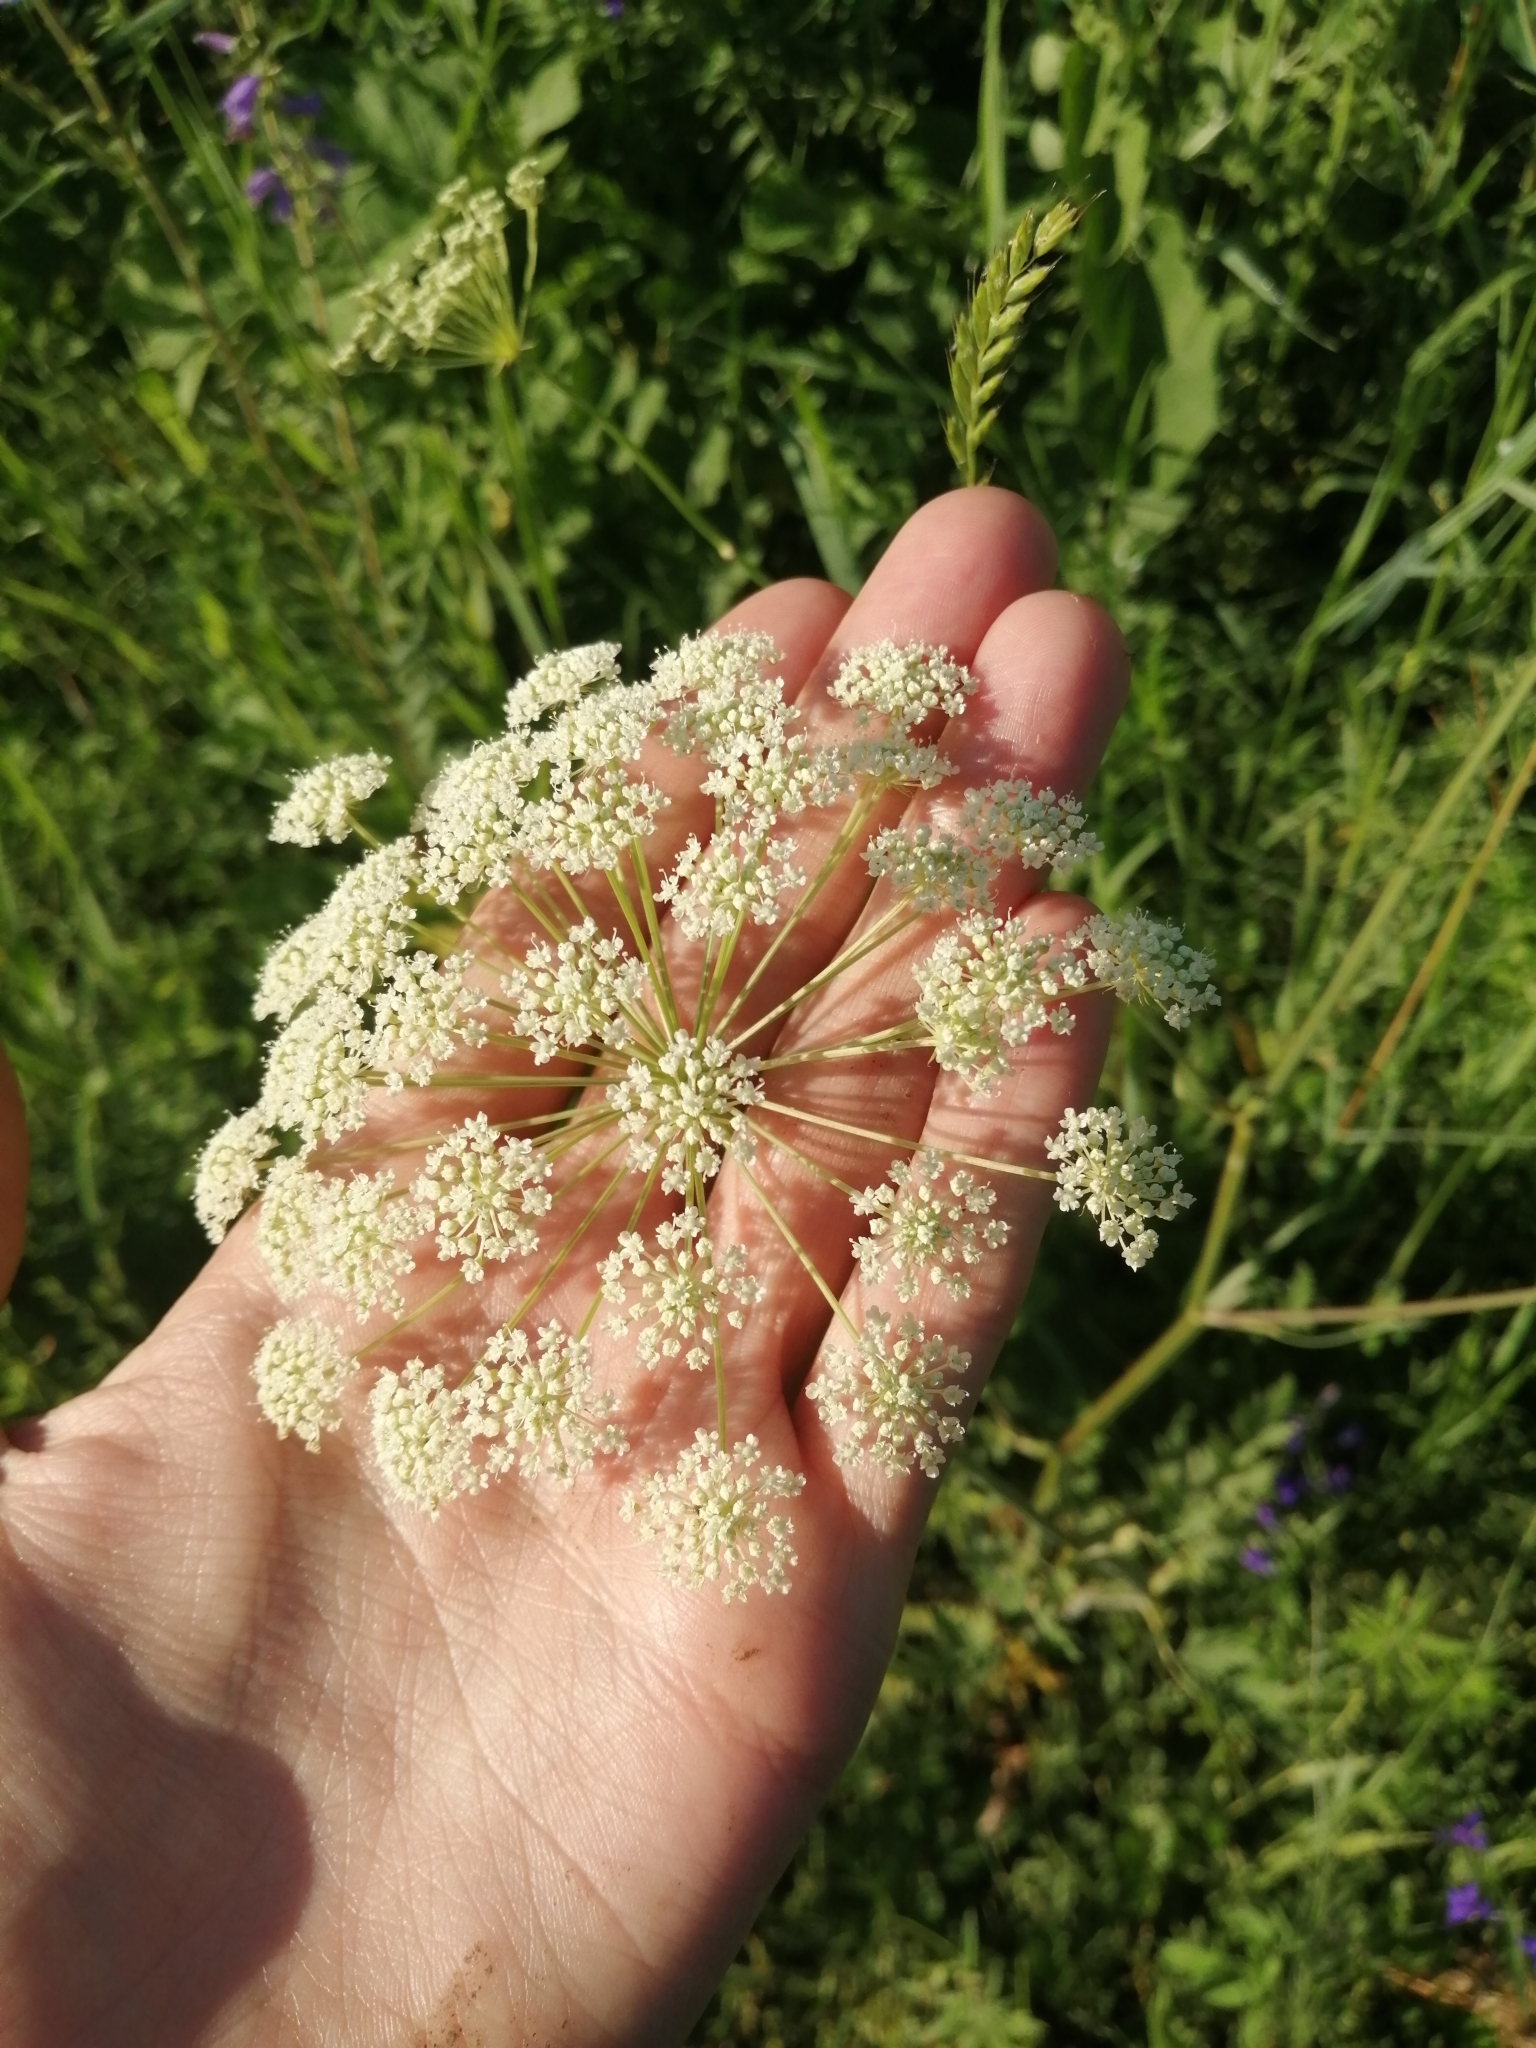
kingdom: Plantae
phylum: Tracheophyta
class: Magnoliopsida
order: Apiales
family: Apiaceae
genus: Seseli
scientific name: Seseli libanotis
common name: Mooncarrot
